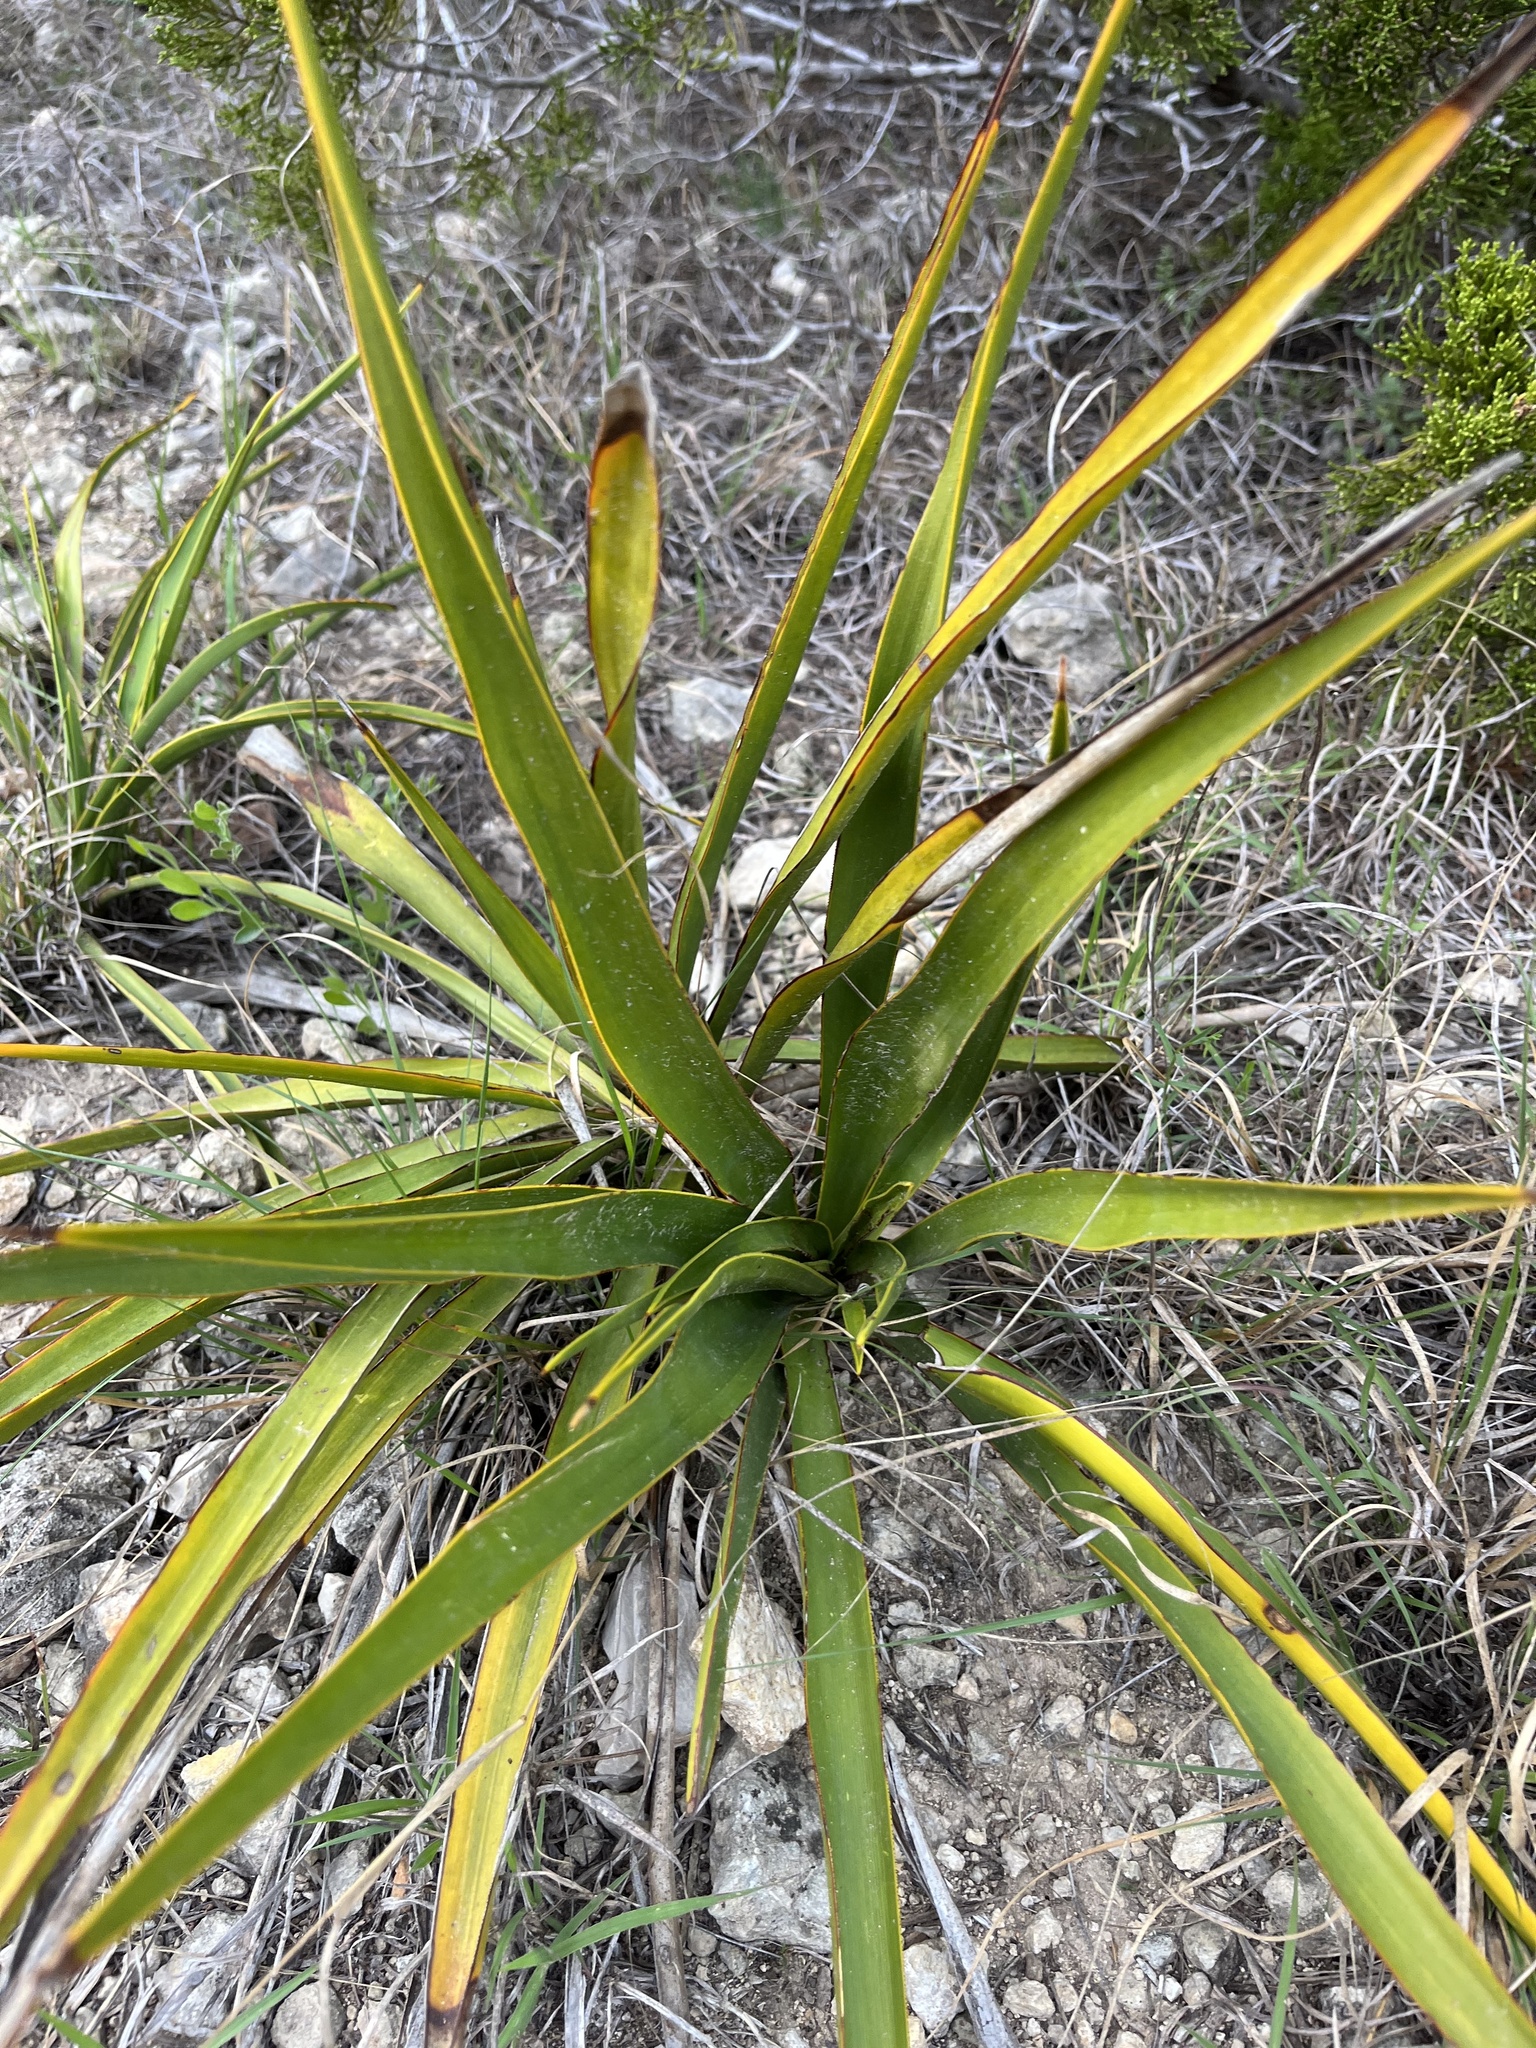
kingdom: Plantae
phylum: Tracheophyta
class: Liliopsida
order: Asparagales
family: Asparagaceae
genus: Yucca
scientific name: Yucca rupicola
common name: Twisted-leaf spanish-dagger
